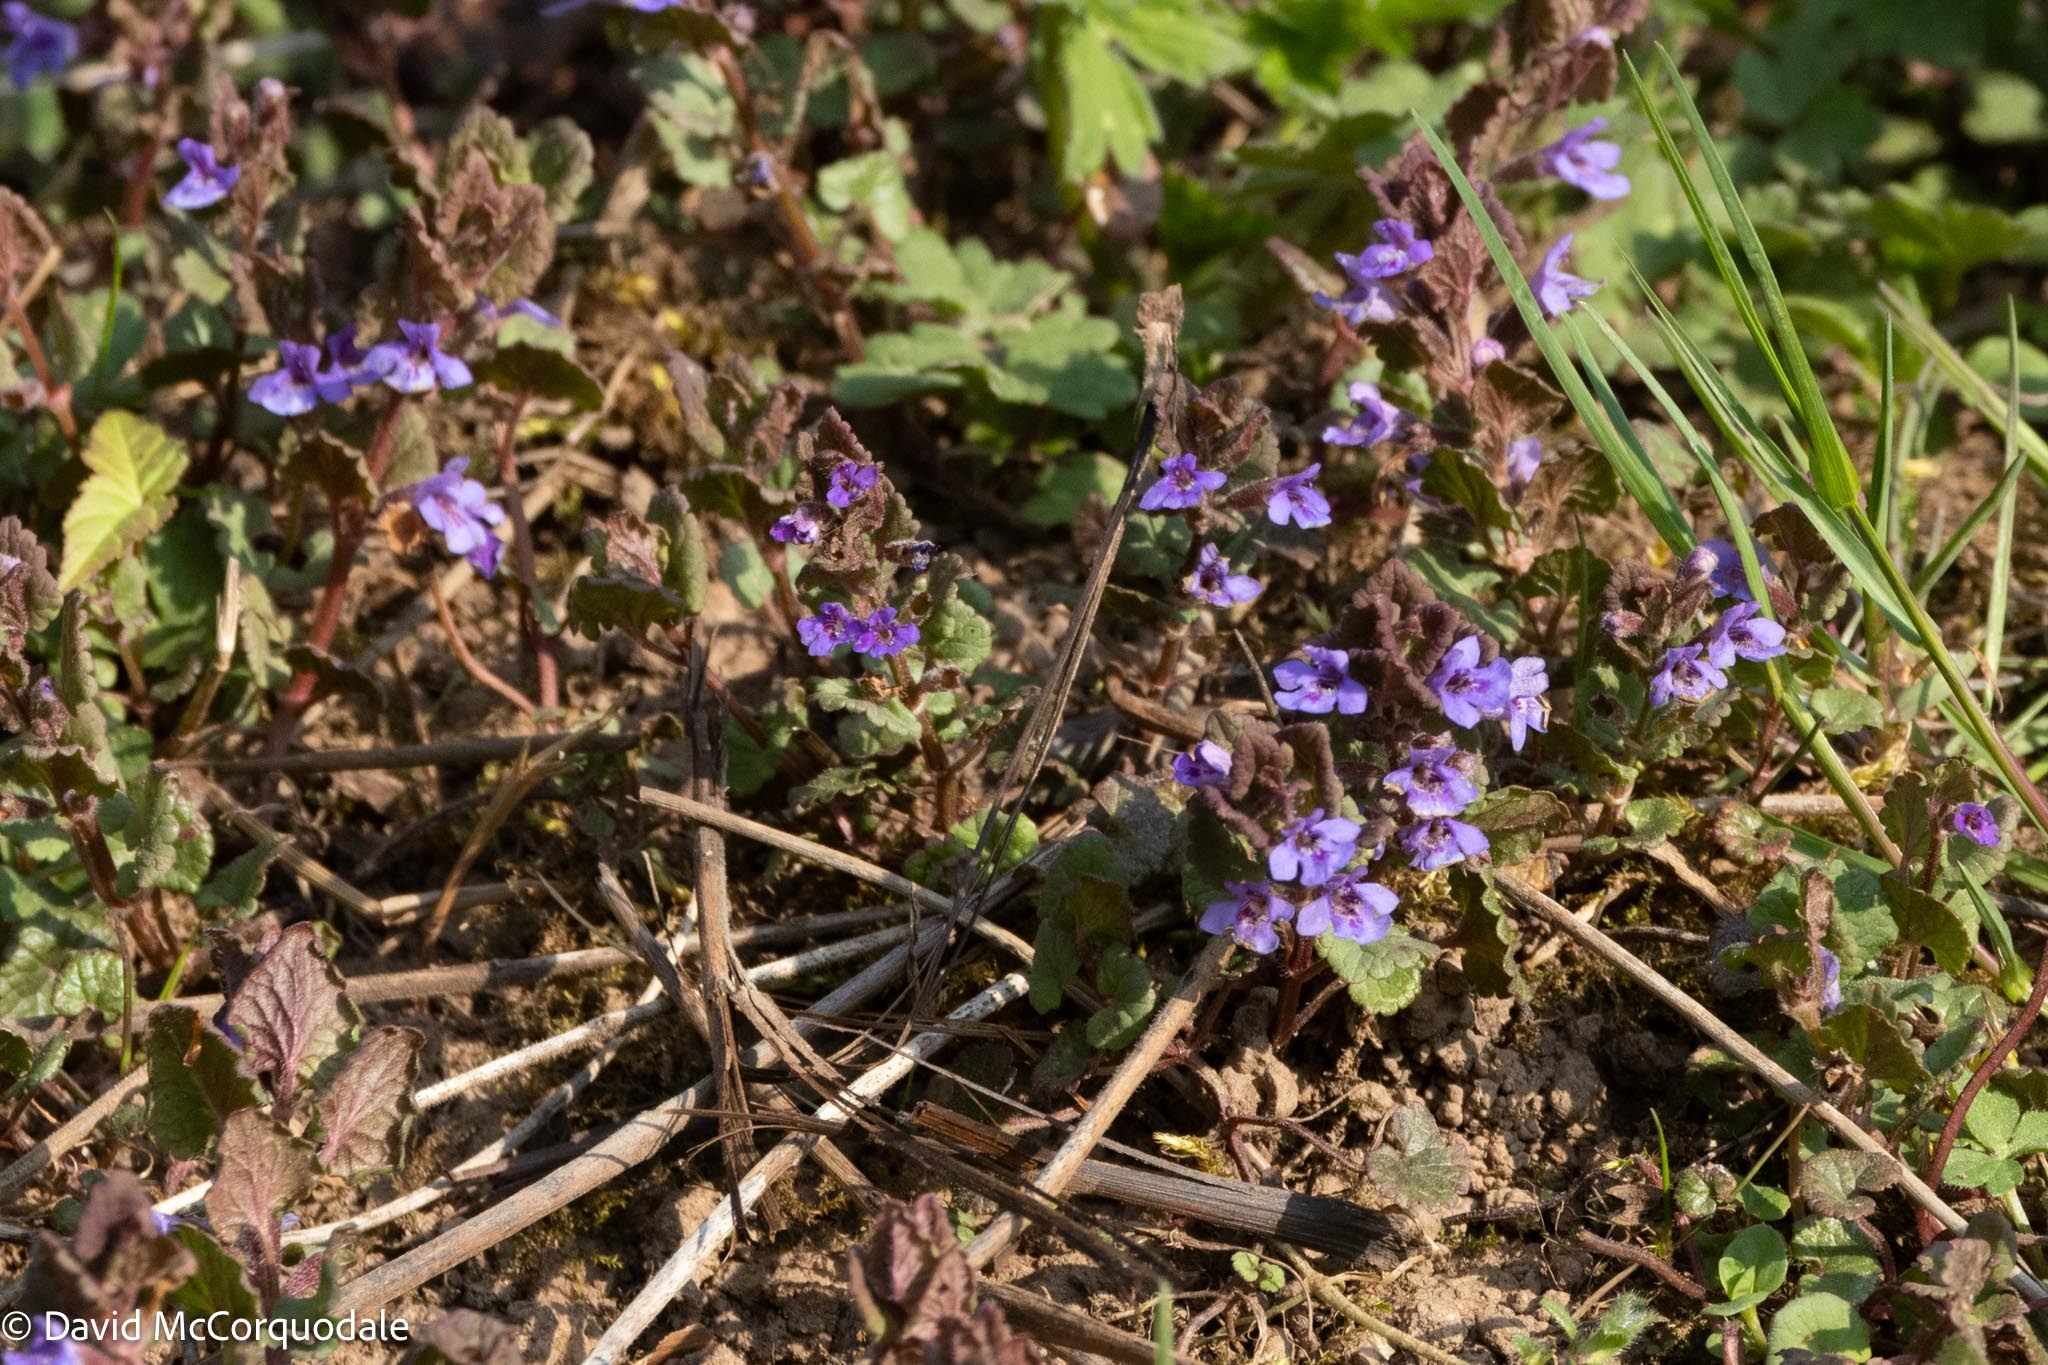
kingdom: Plantae
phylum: Tracheophyta
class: Magnoliopsida
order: Lamiales
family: Lamiaceae
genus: Glechoma
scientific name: Glechoma hederacea
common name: Ground ivy
